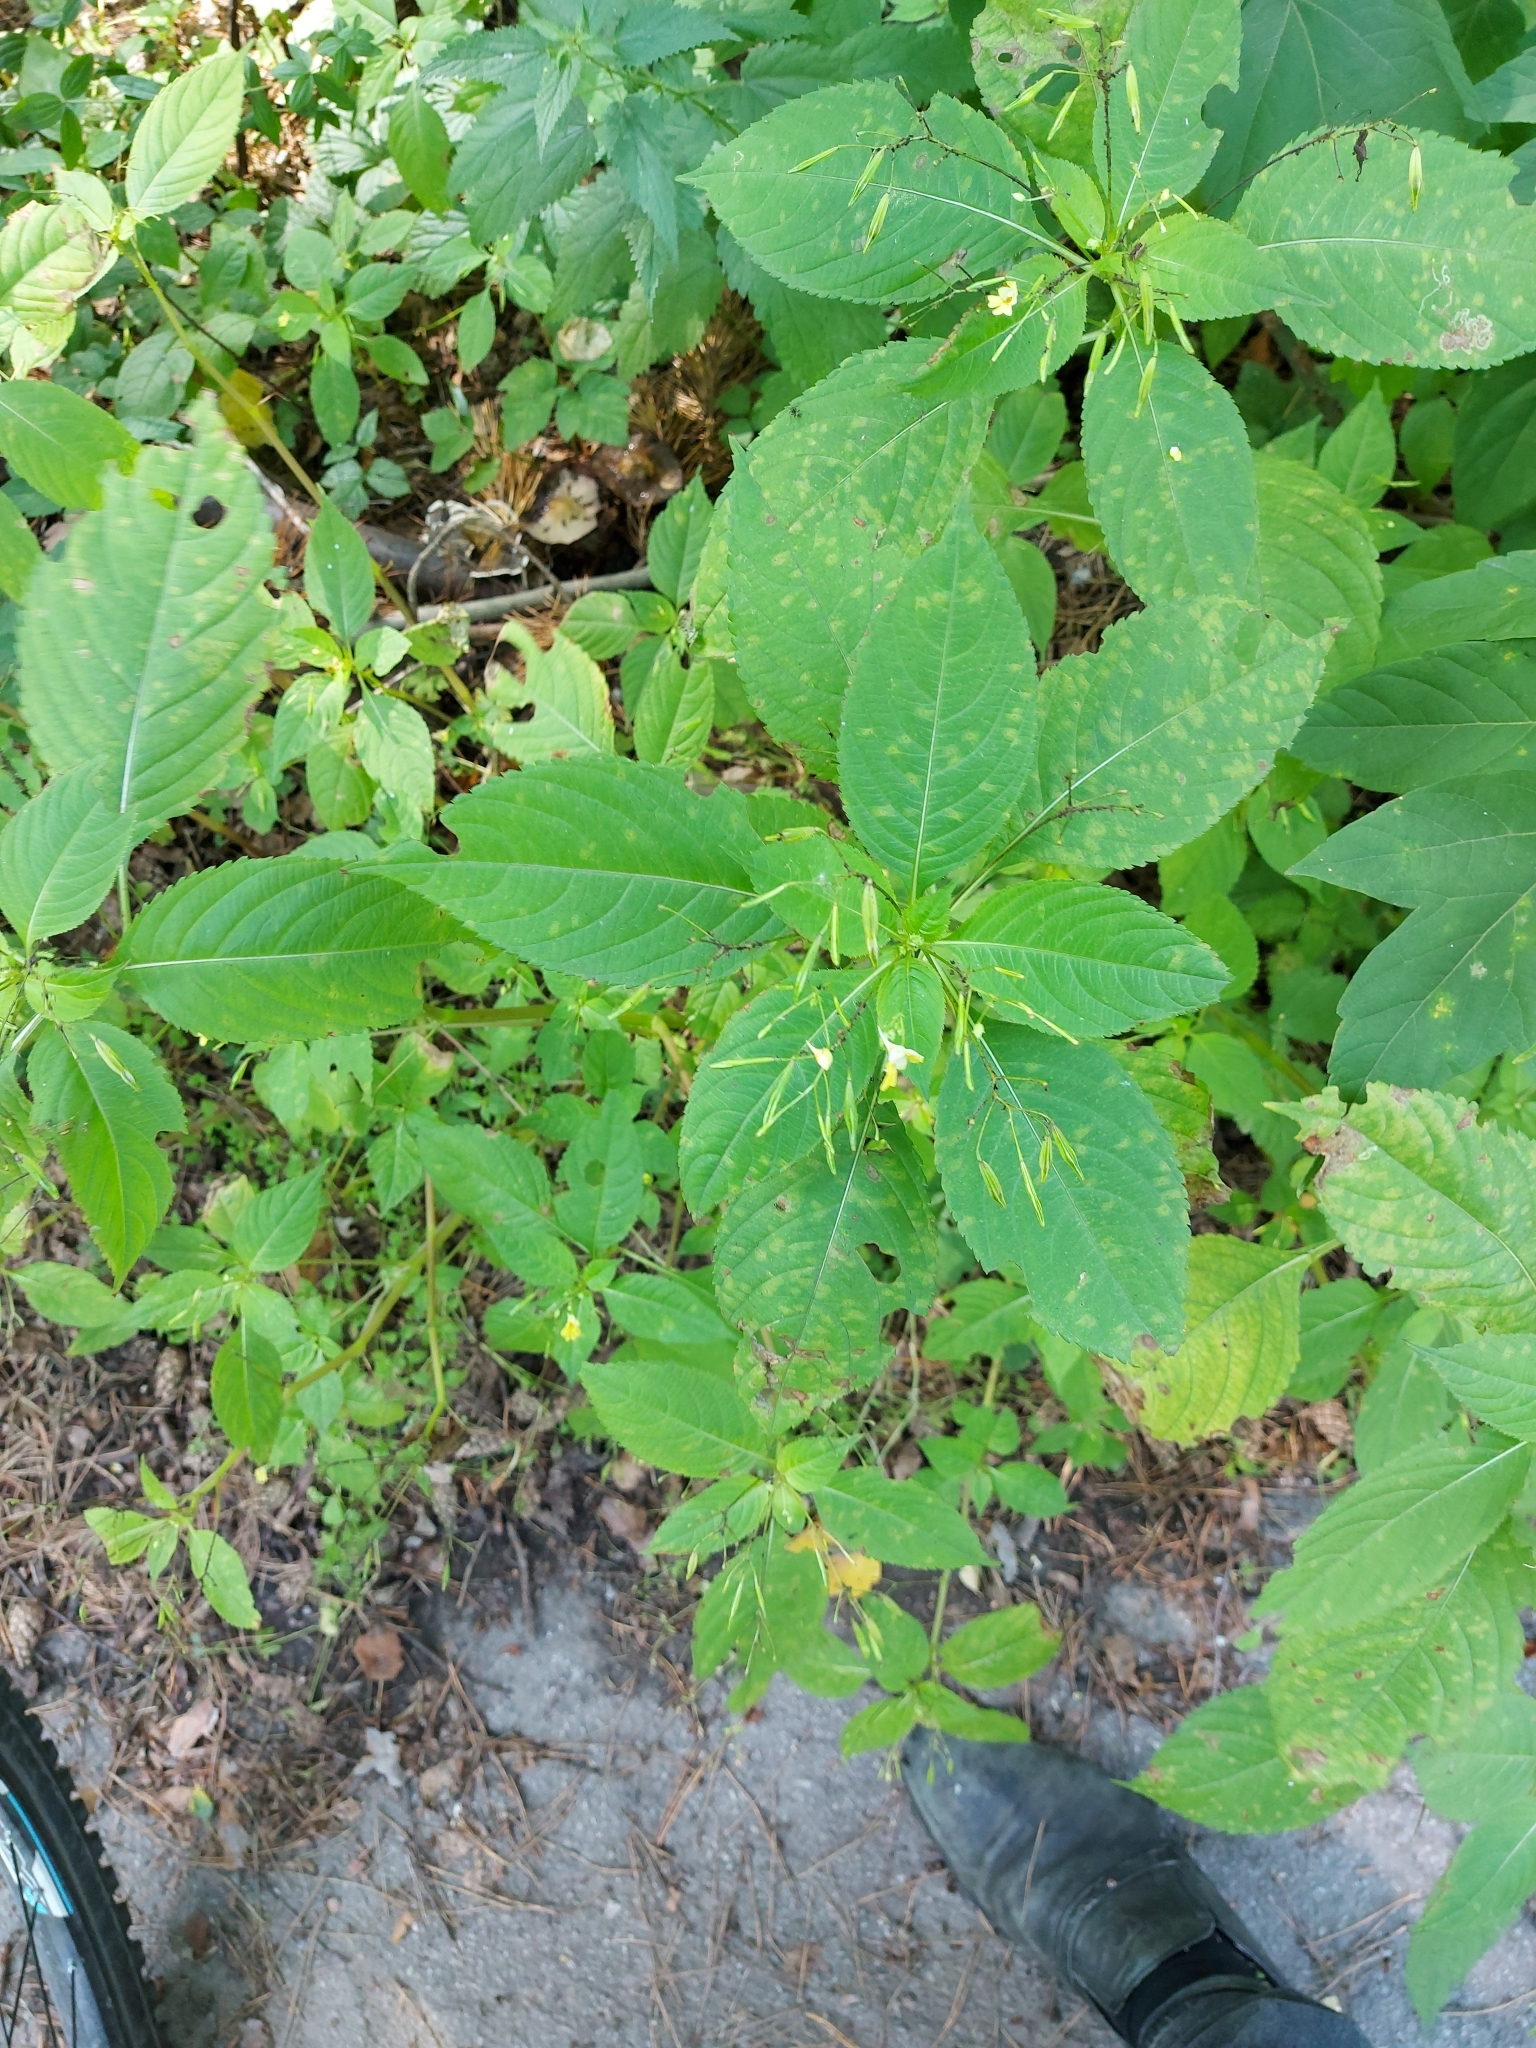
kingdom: Plantae
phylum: Tracheophyta
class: Magnoliopsida
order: Ericales
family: Balsaminaceae
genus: Impatiens
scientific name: Impatiens parviflora
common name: Small balsam
